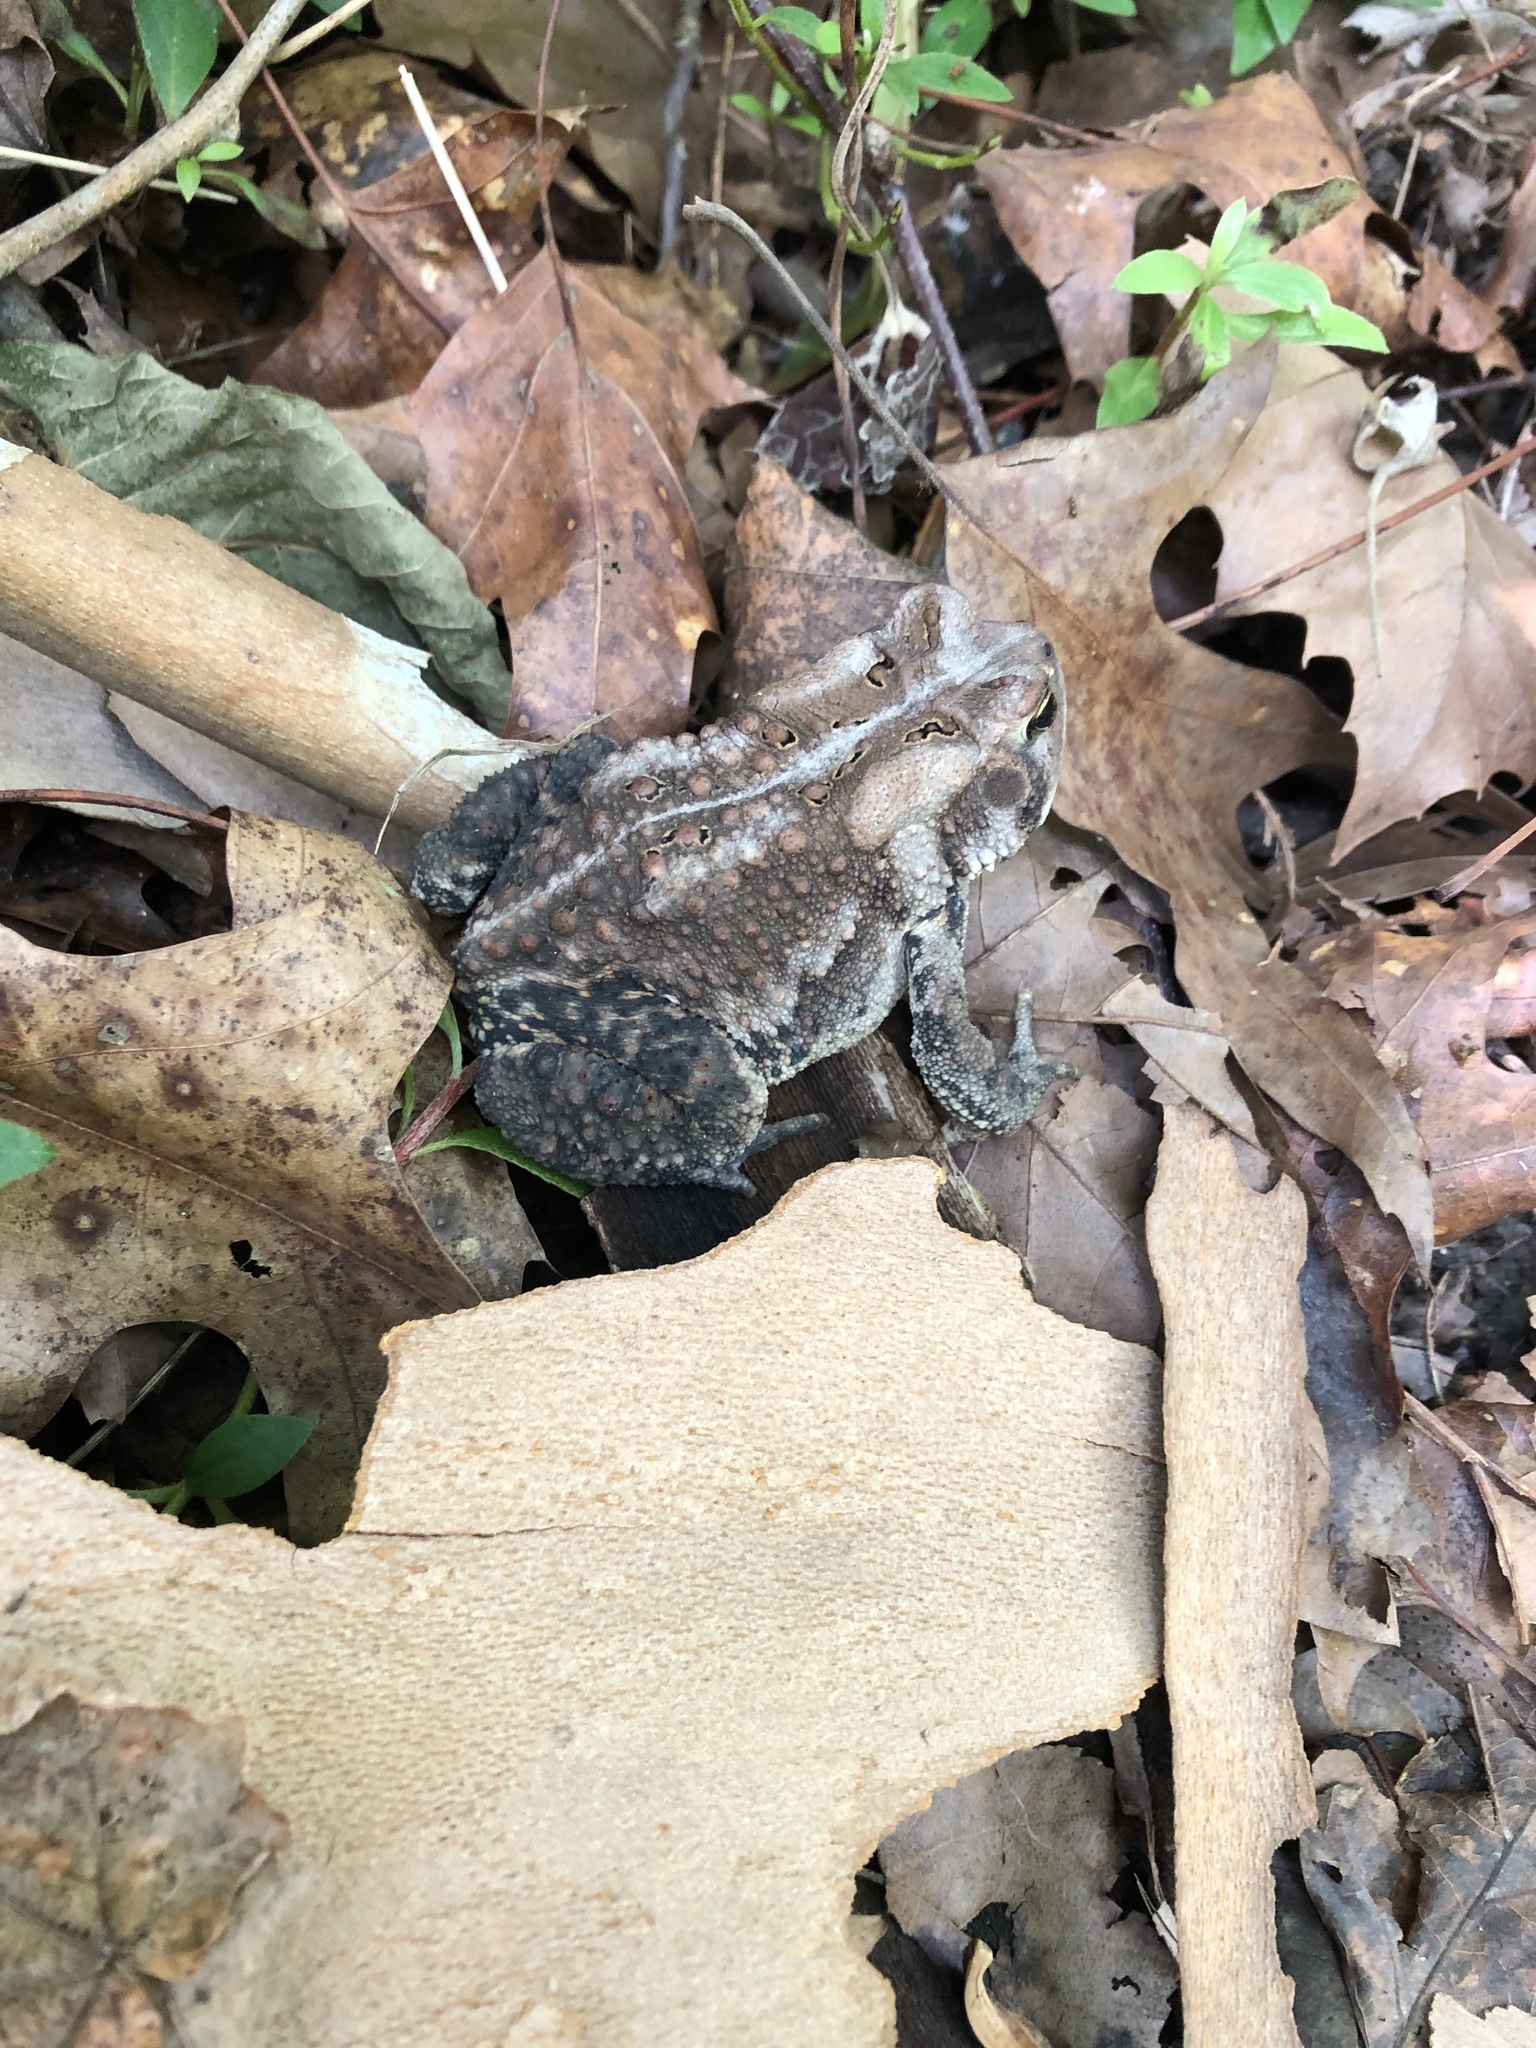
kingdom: Animalia
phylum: Chordata
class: Amphibia
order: Anura
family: Bufonidae
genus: Anaxyrus
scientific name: Anaxyrus americanus
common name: American toad
